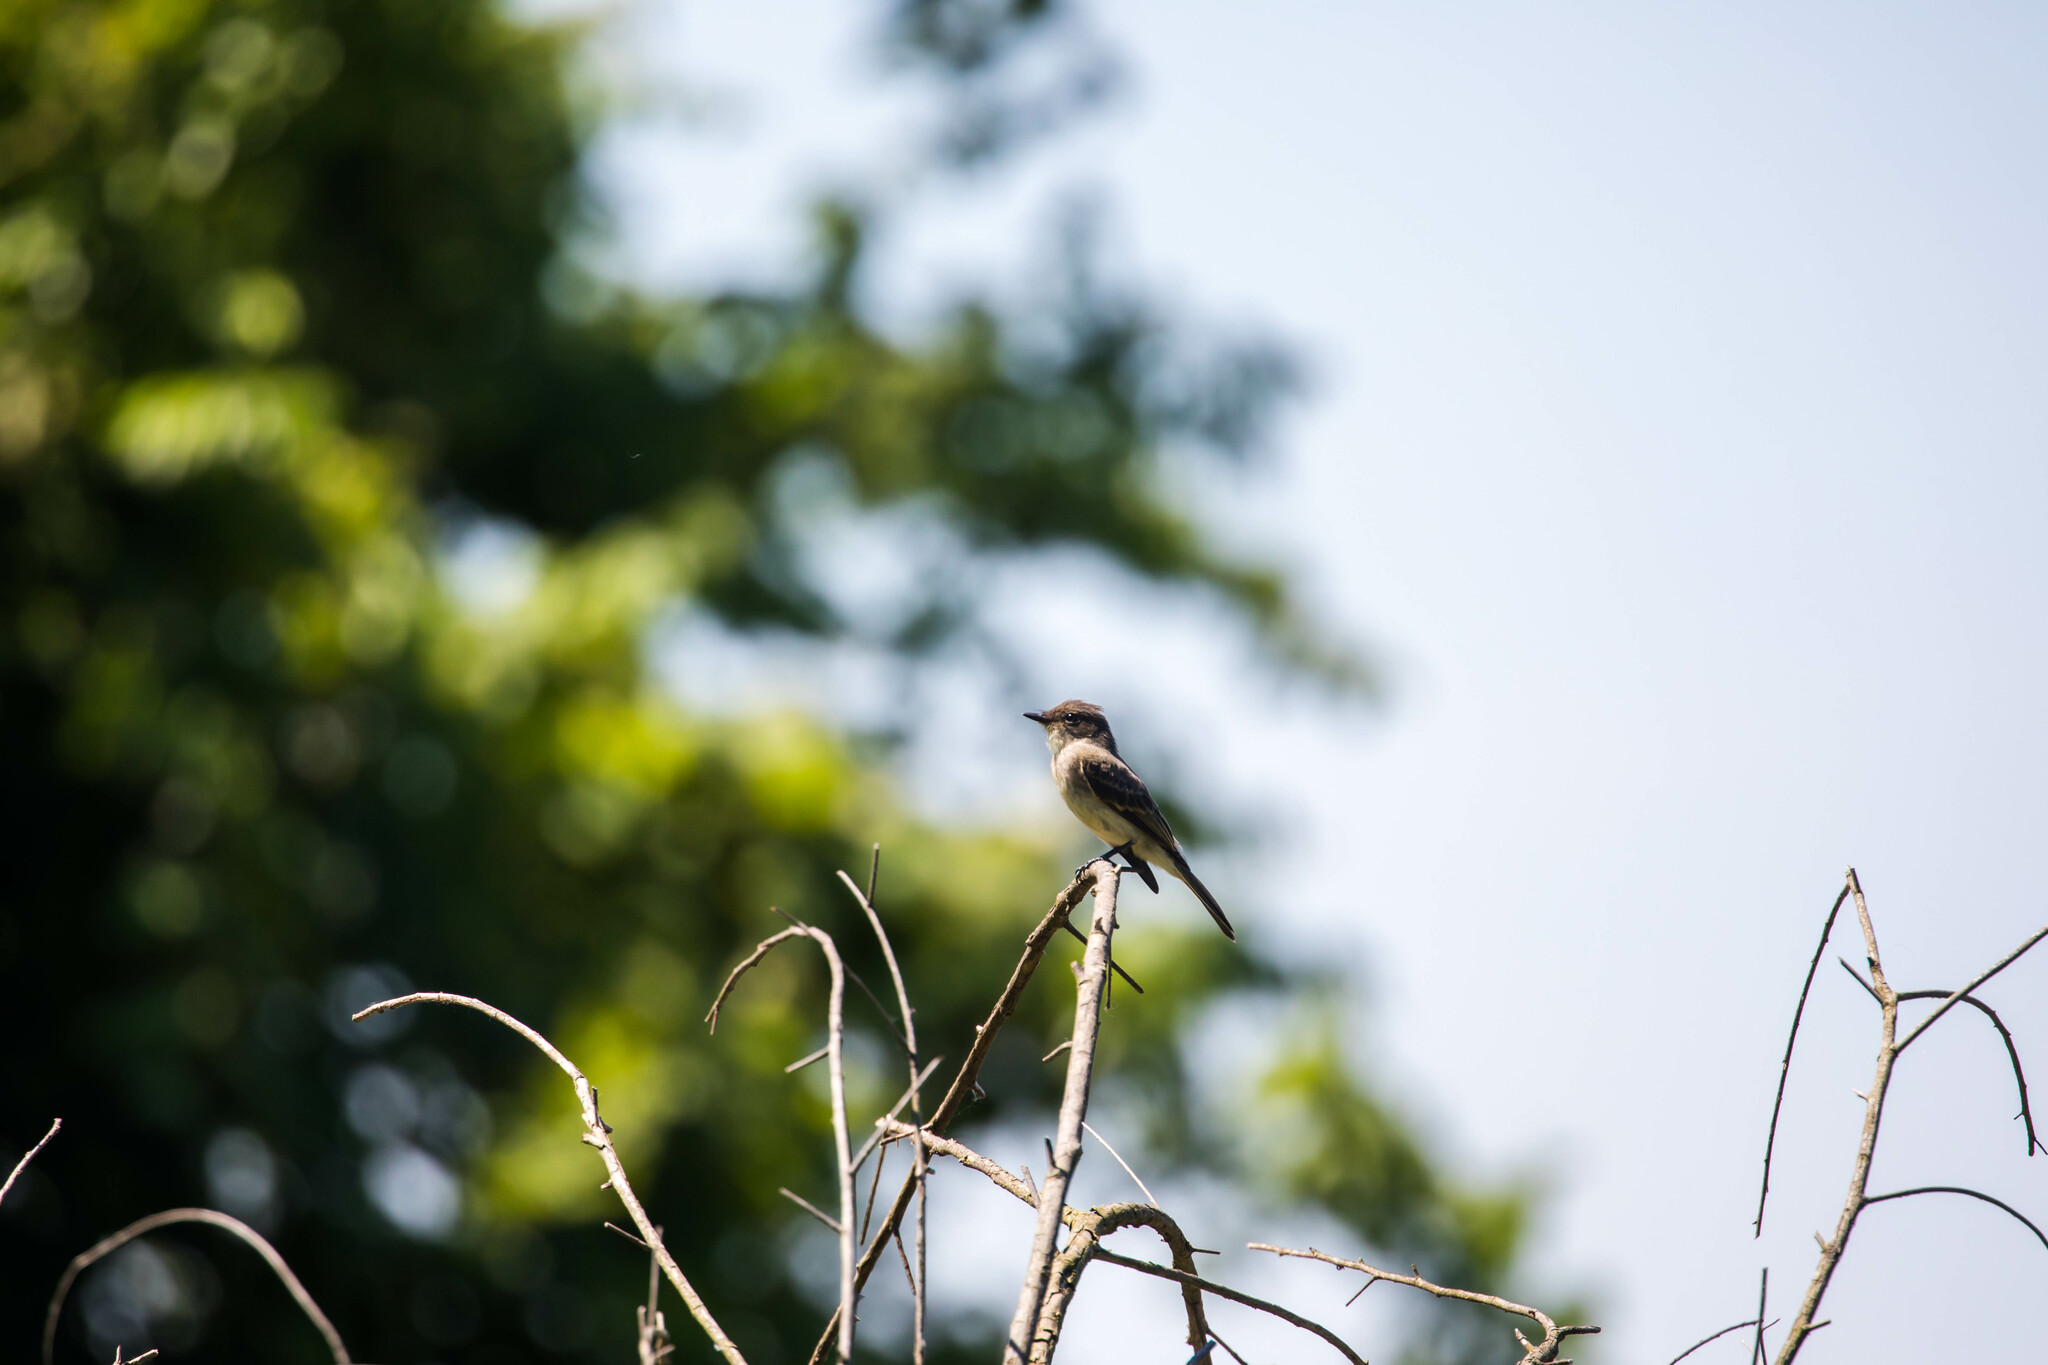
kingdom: Animalia
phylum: Chordata
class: Aves
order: Passeriformes
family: Tyrannidae
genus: Sayornis
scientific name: Sayornis phoebe
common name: Eastern phoebe
